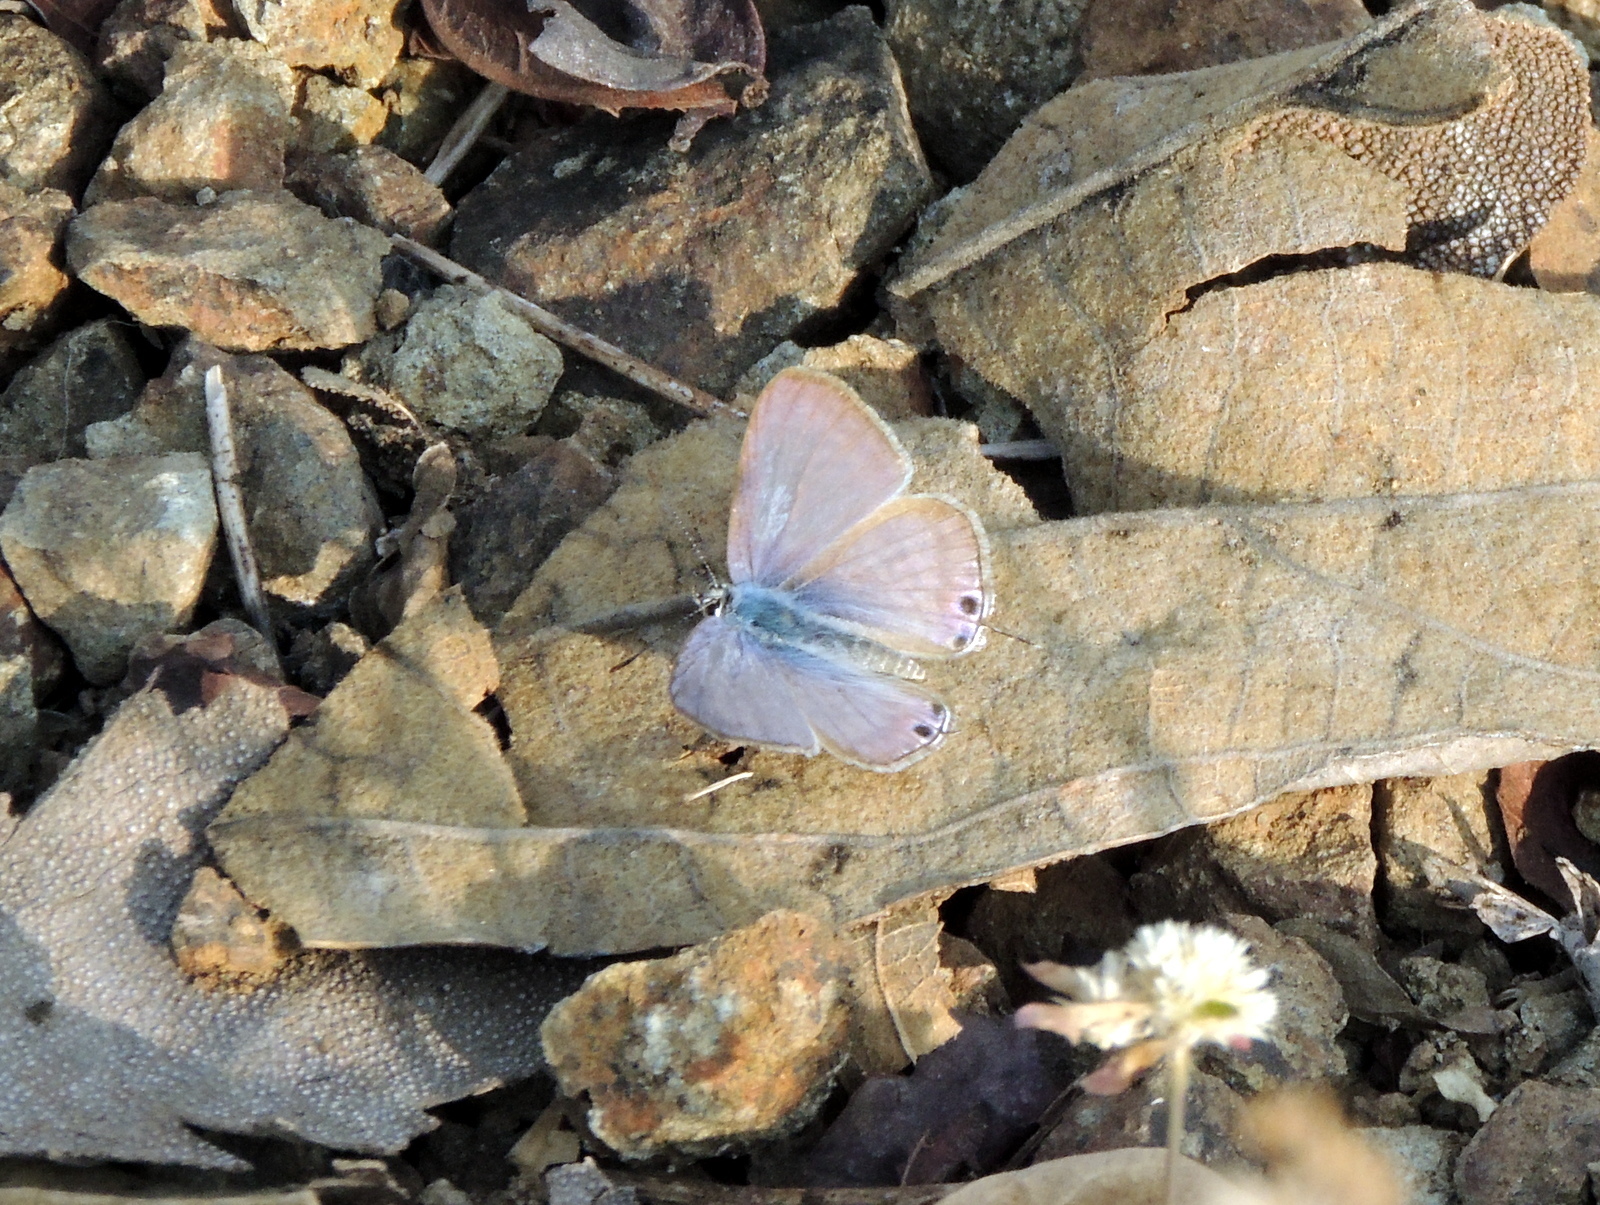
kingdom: Animalia
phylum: Arthropoda
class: Insecta
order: Lepidoptera
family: Lycaenidae
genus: Lampides
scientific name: Lampides boeticus
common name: Long-tailed blue
